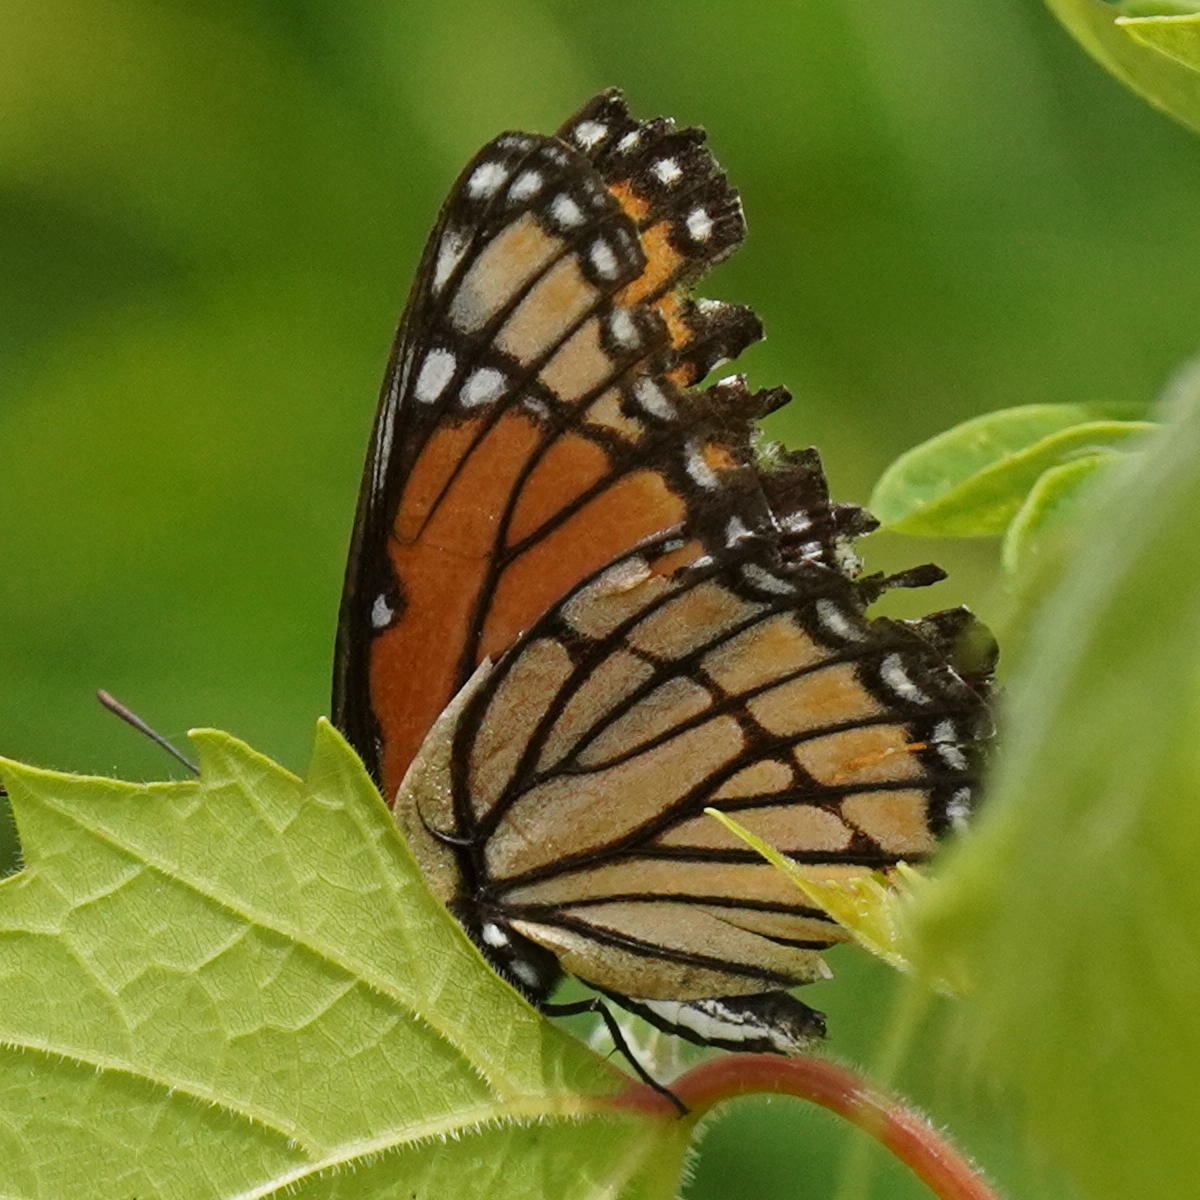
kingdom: Animalia
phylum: Arthropoda
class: Insecta
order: Lepidoptera
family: Nymphalidae
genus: Limenitis
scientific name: Limenitis archippus
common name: Viceroy
